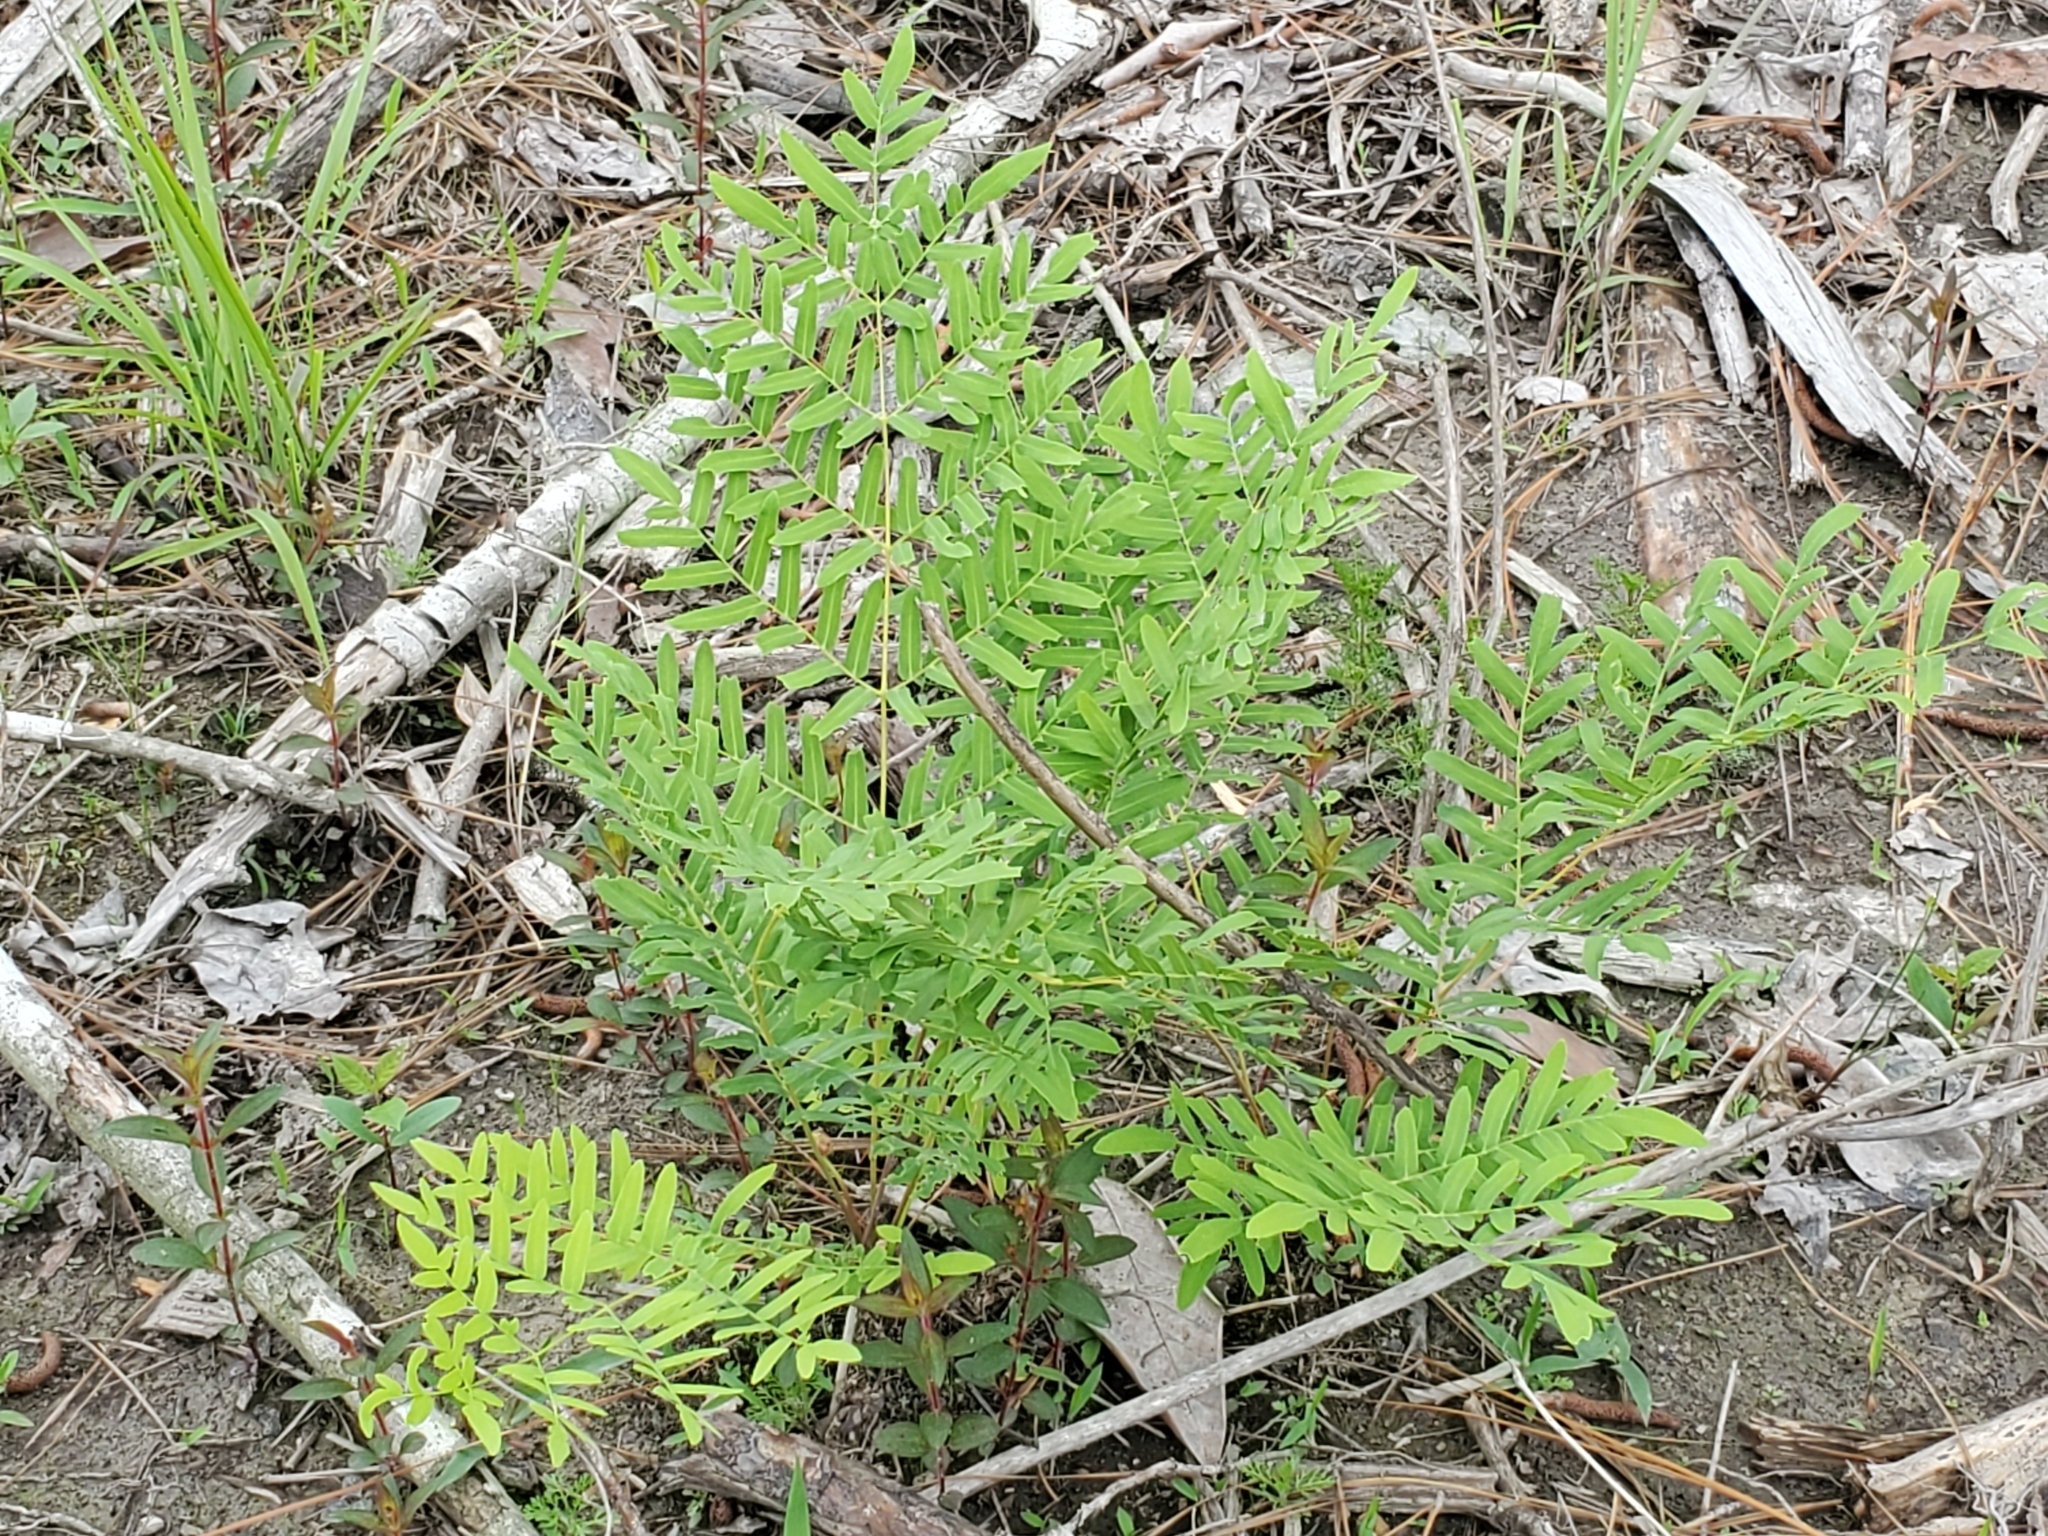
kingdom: Plantae
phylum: Tracheophyta
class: Polypodiopsida
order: Osmundales
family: Osmundaceae
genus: Osmunda
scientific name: Osmunda spectabilis
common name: American royal fern
